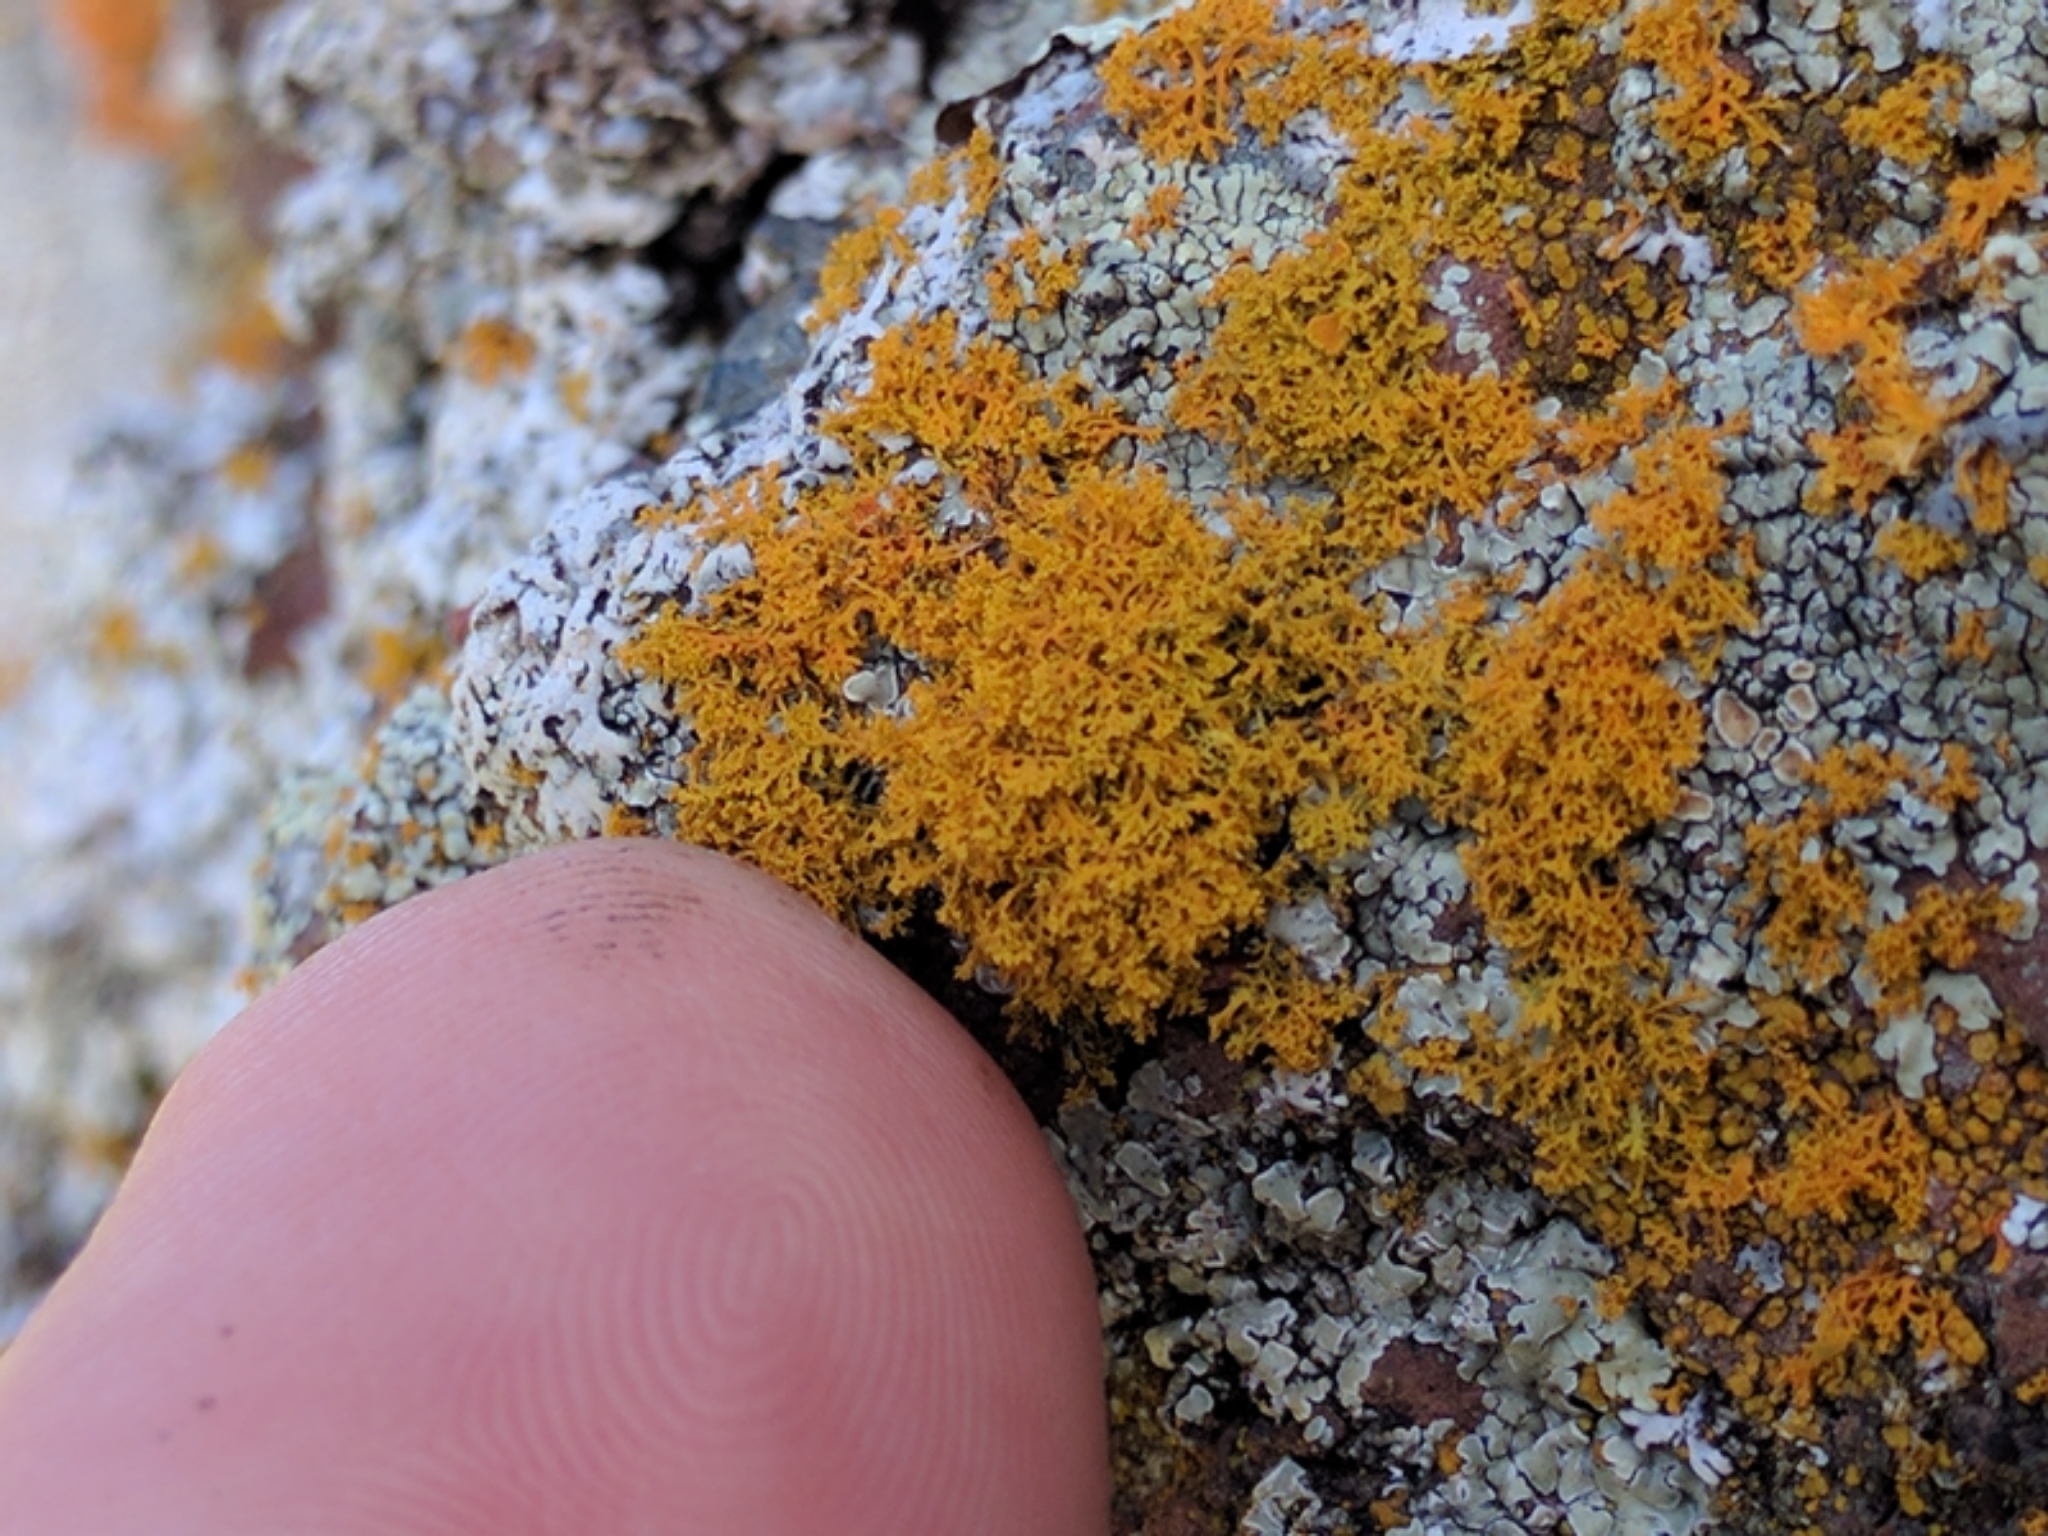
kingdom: Fungi
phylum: Ascomycota
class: Lecanoromycetes
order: Teloschistales
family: Teloschistaceae
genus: Polycauliona
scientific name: Polycauliona candelaria
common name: Shrubby sunburst lichen
